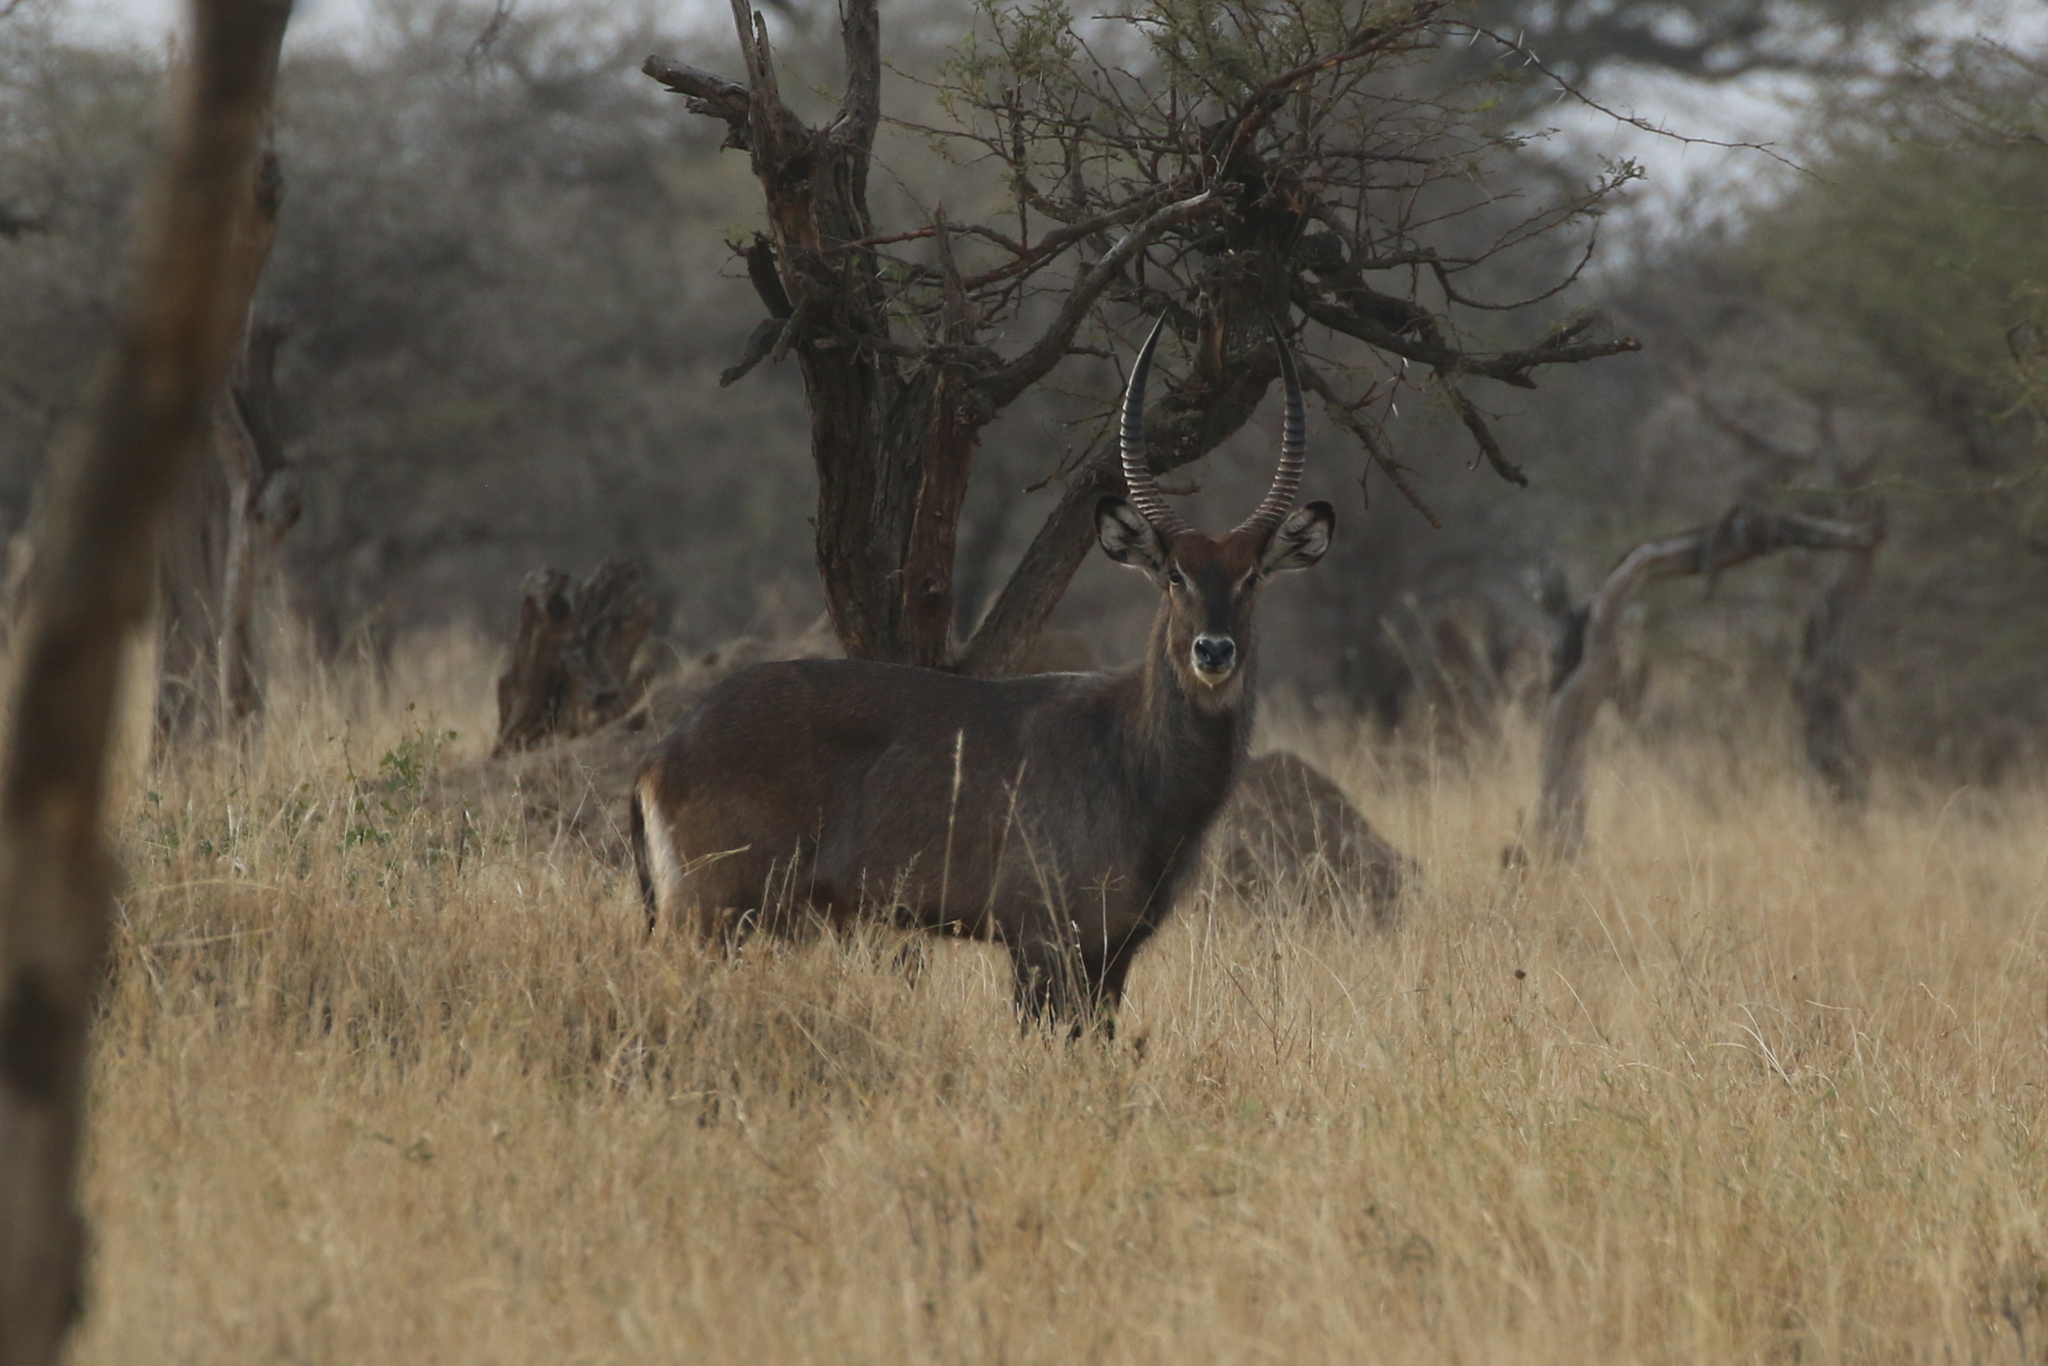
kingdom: Animalia
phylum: Chordata
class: Mammalia
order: Artiodactyla
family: Bovidae
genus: Kobus
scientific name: Kobus ellipsiprymnus
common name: Waterbuck
